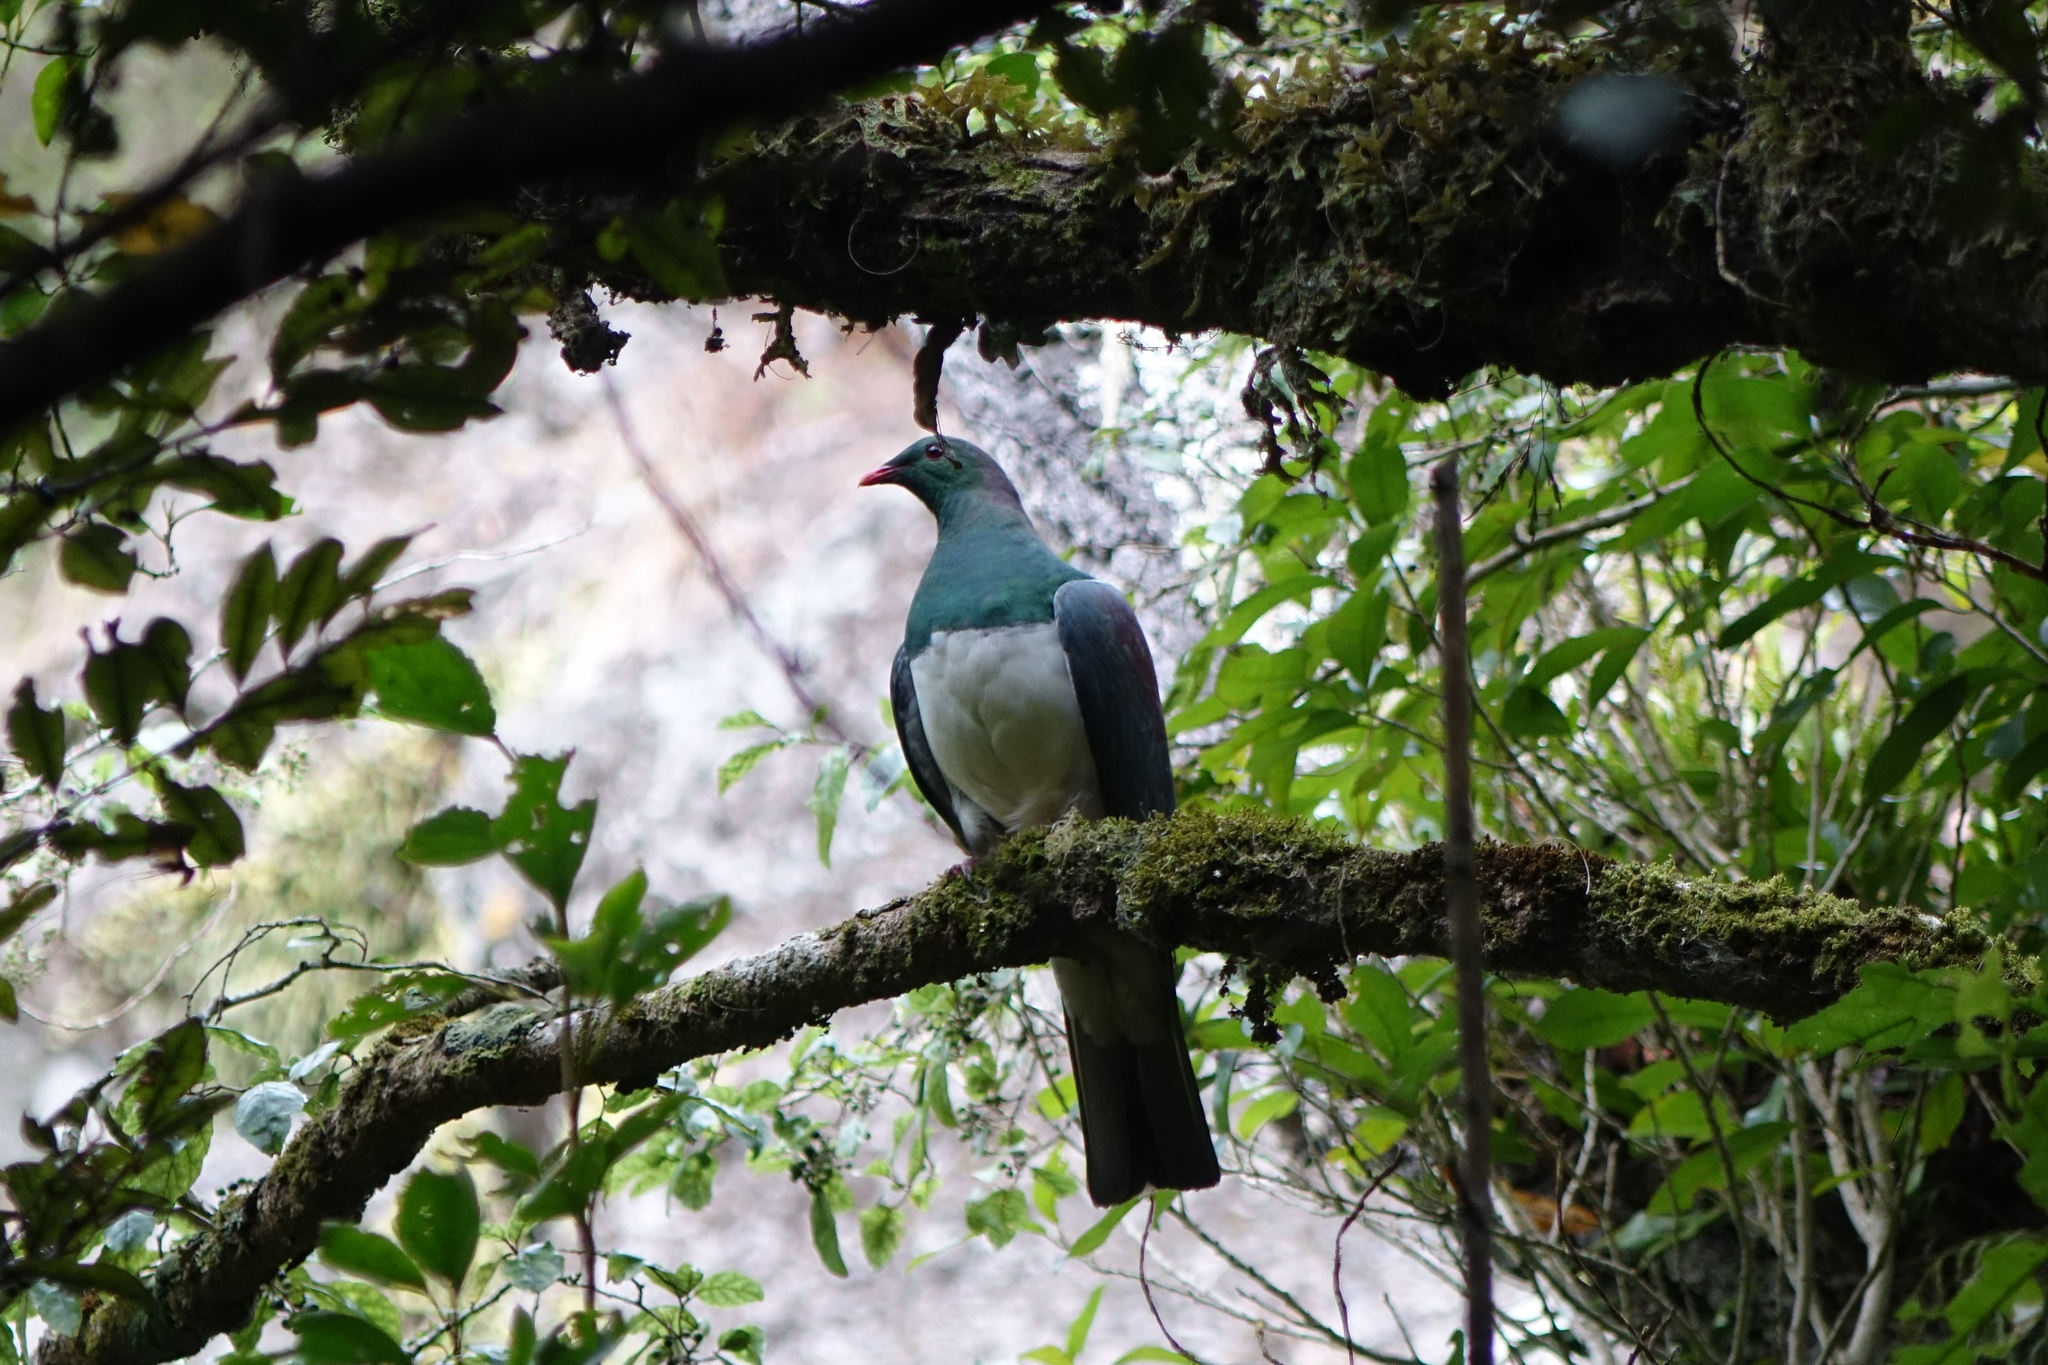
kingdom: Animalia
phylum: Chordata
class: Aves
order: Columbiformes
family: Columbidae
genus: Hemiphaga
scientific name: Hemiphaga novaeseelandiae
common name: New zealand pigeon
